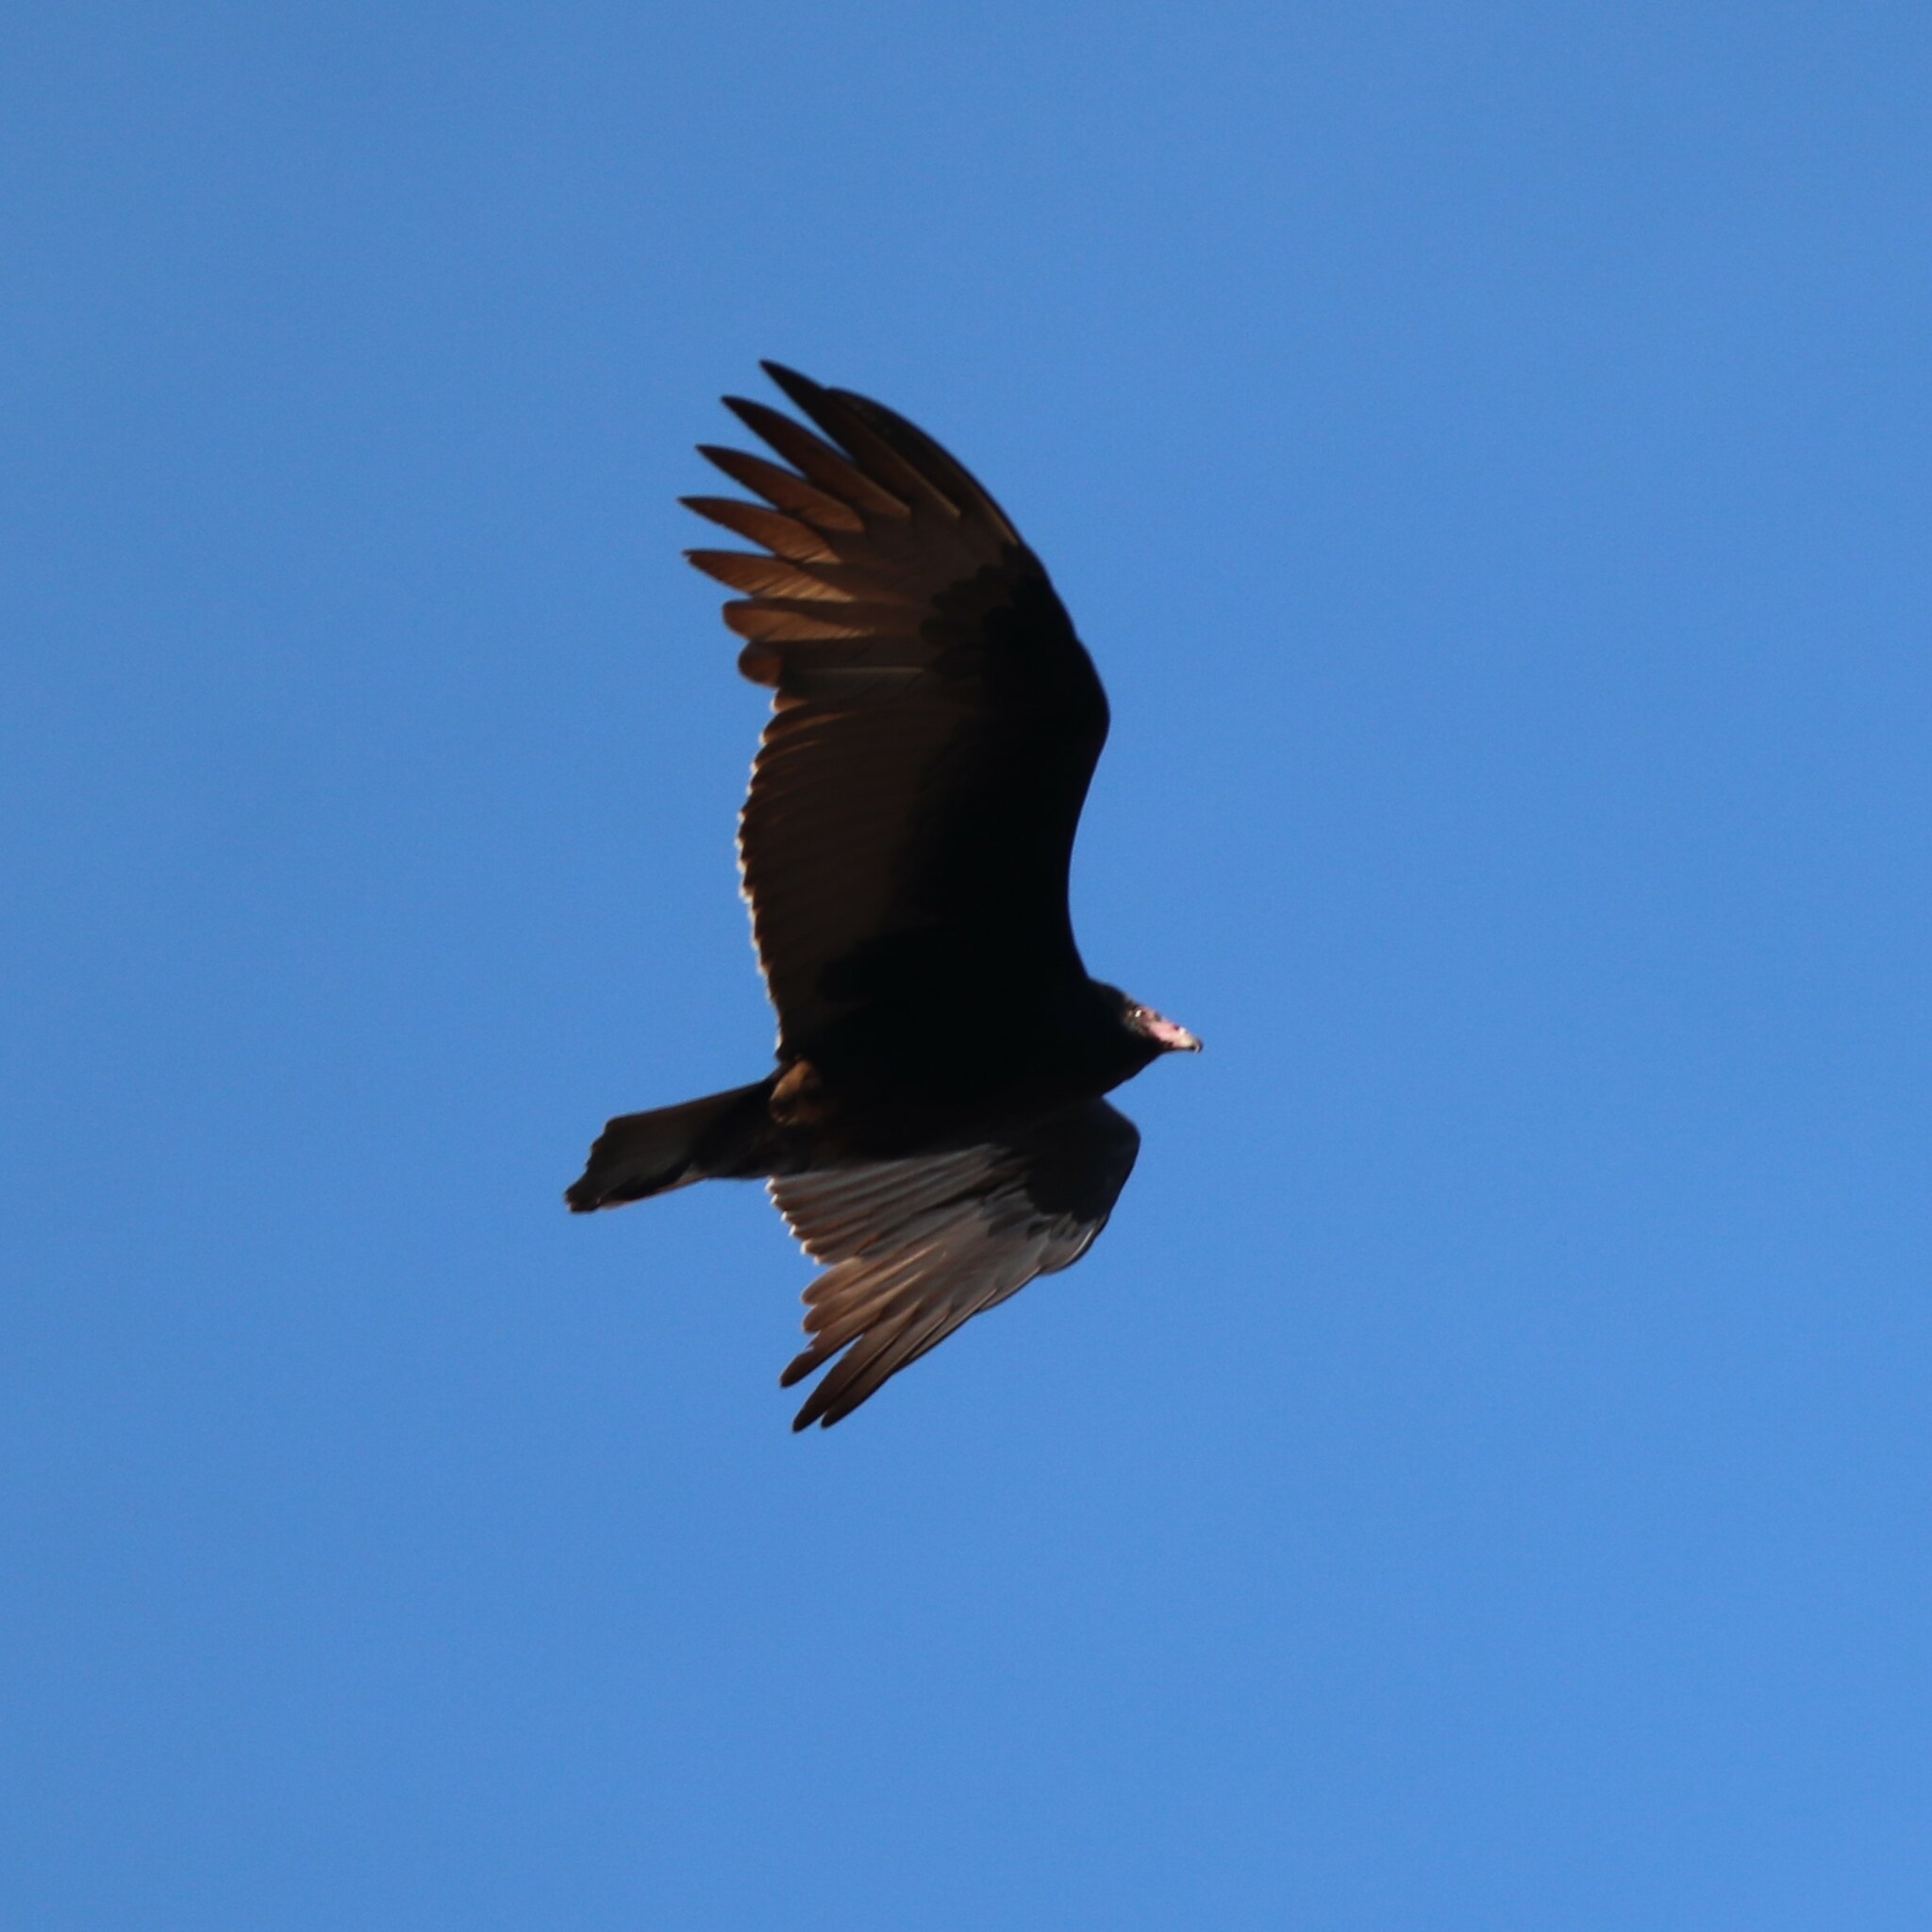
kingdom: Animalia
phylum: Chordata
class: Aves
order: Accipitriformes
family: Cathartidae
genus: Cathartes
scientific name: Cathartes aura
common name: Turkey vulture
